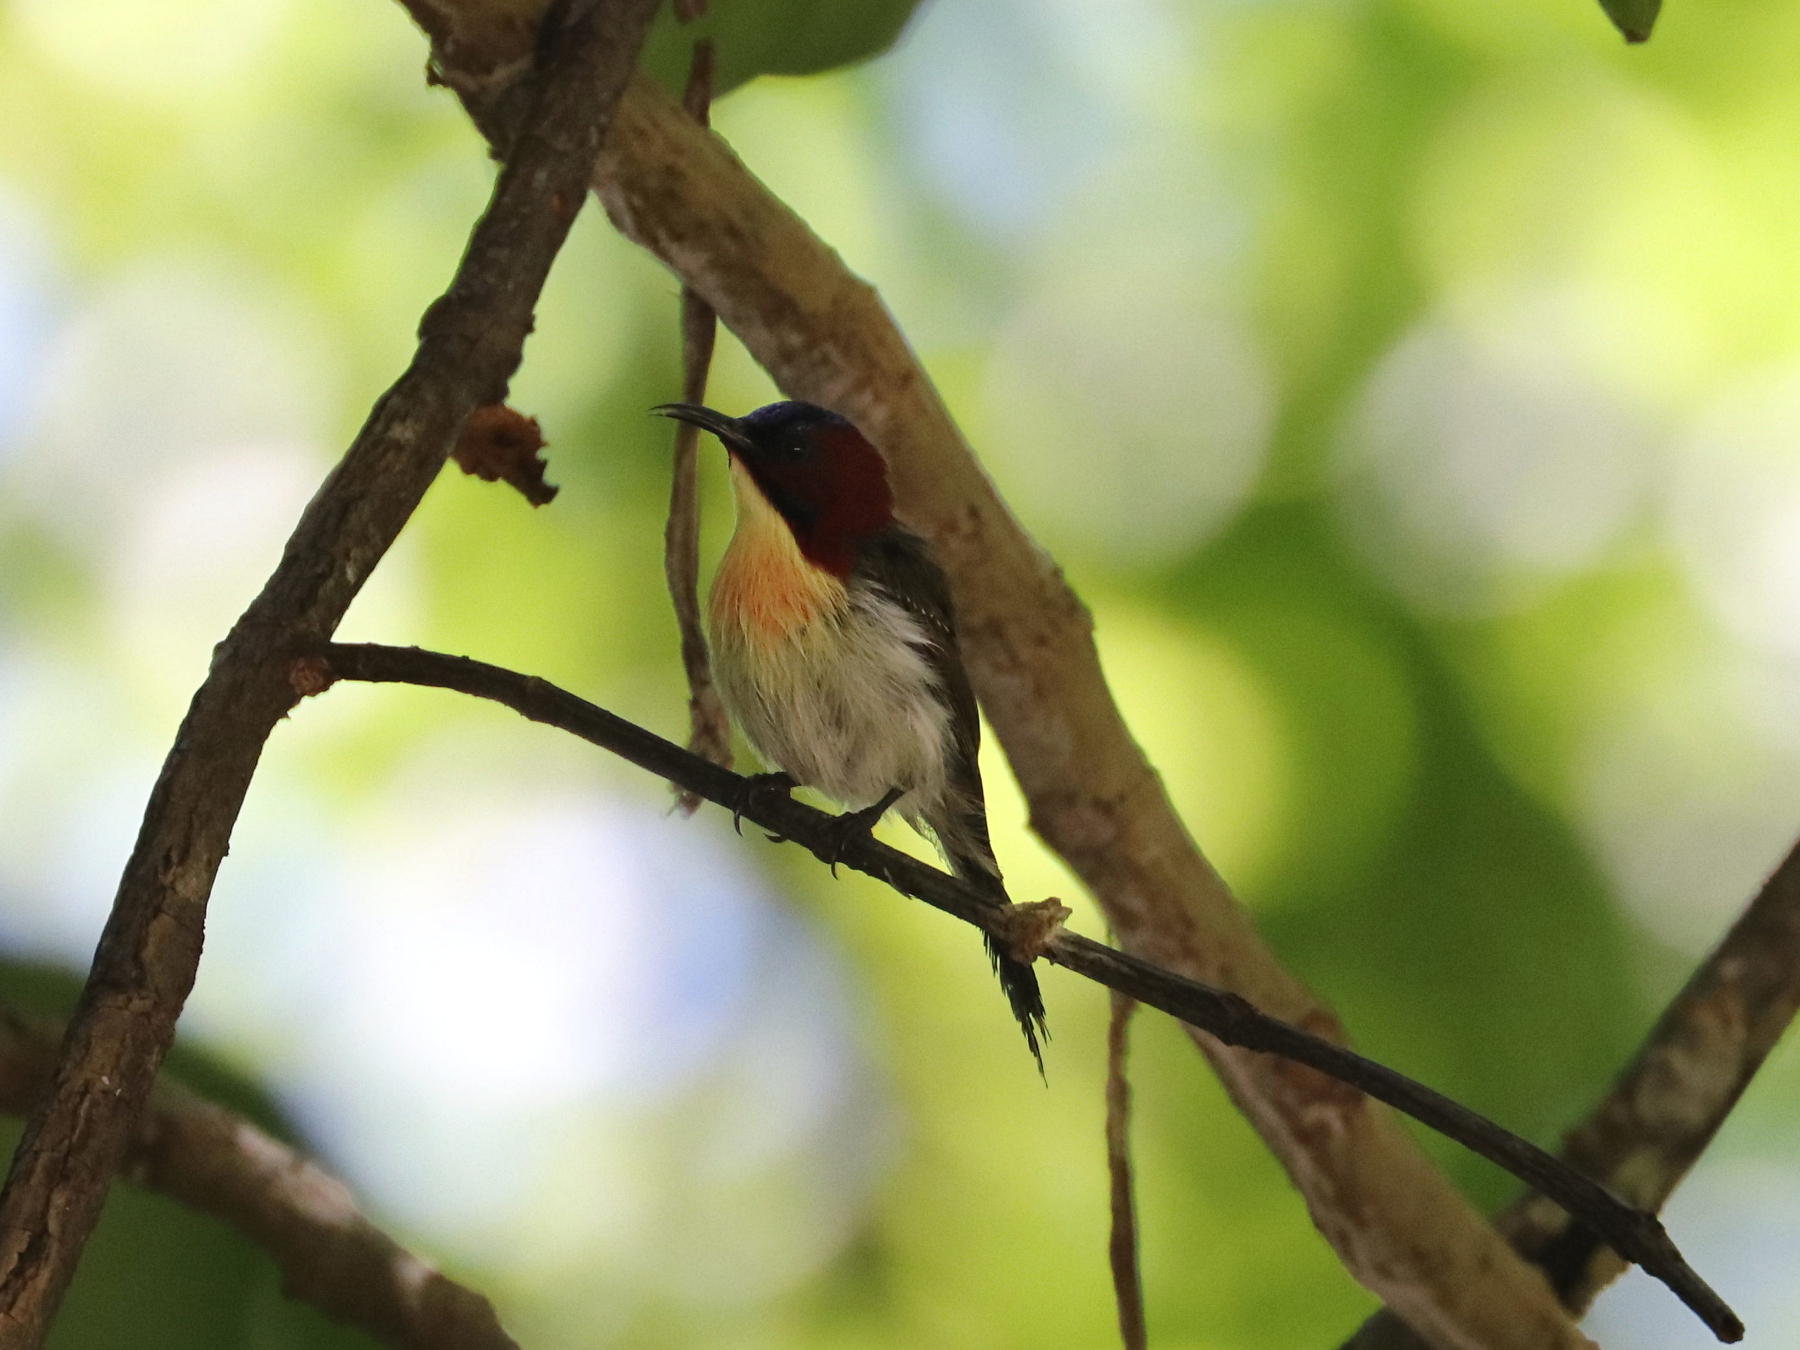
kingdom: Animalia
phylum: Chordata
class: Aves
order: Passeriformes
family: Nectariniidae
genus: Aethopyga
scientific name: Aethopyga shelleyi
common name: Lovely sunbird
